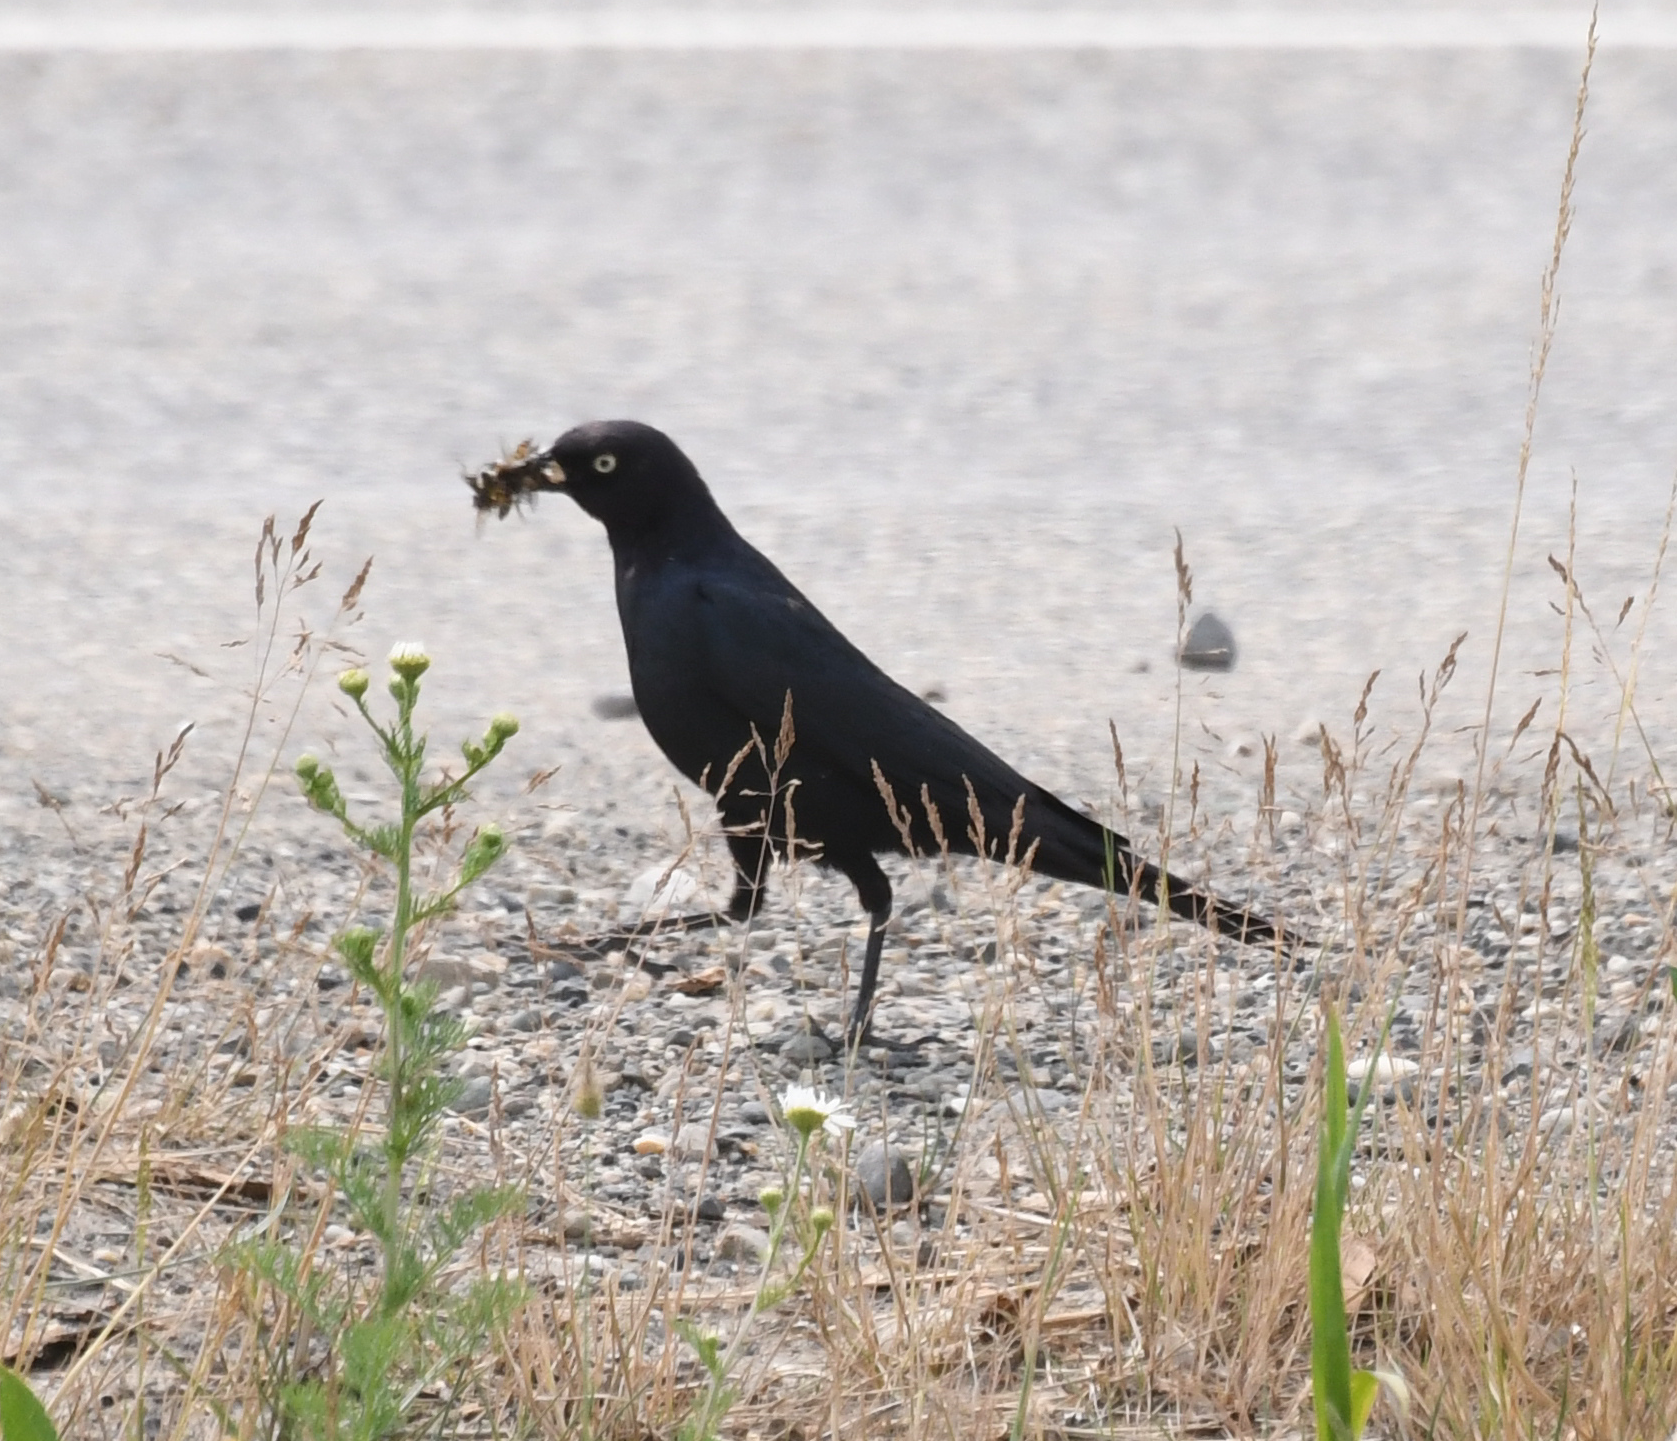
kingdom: Animalia
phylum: Chordata
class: Aves
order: Passeriformes
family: Icteridae
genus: Euphagus
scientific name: Euphagus cyanocephalus
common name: Brewer's blackbird
